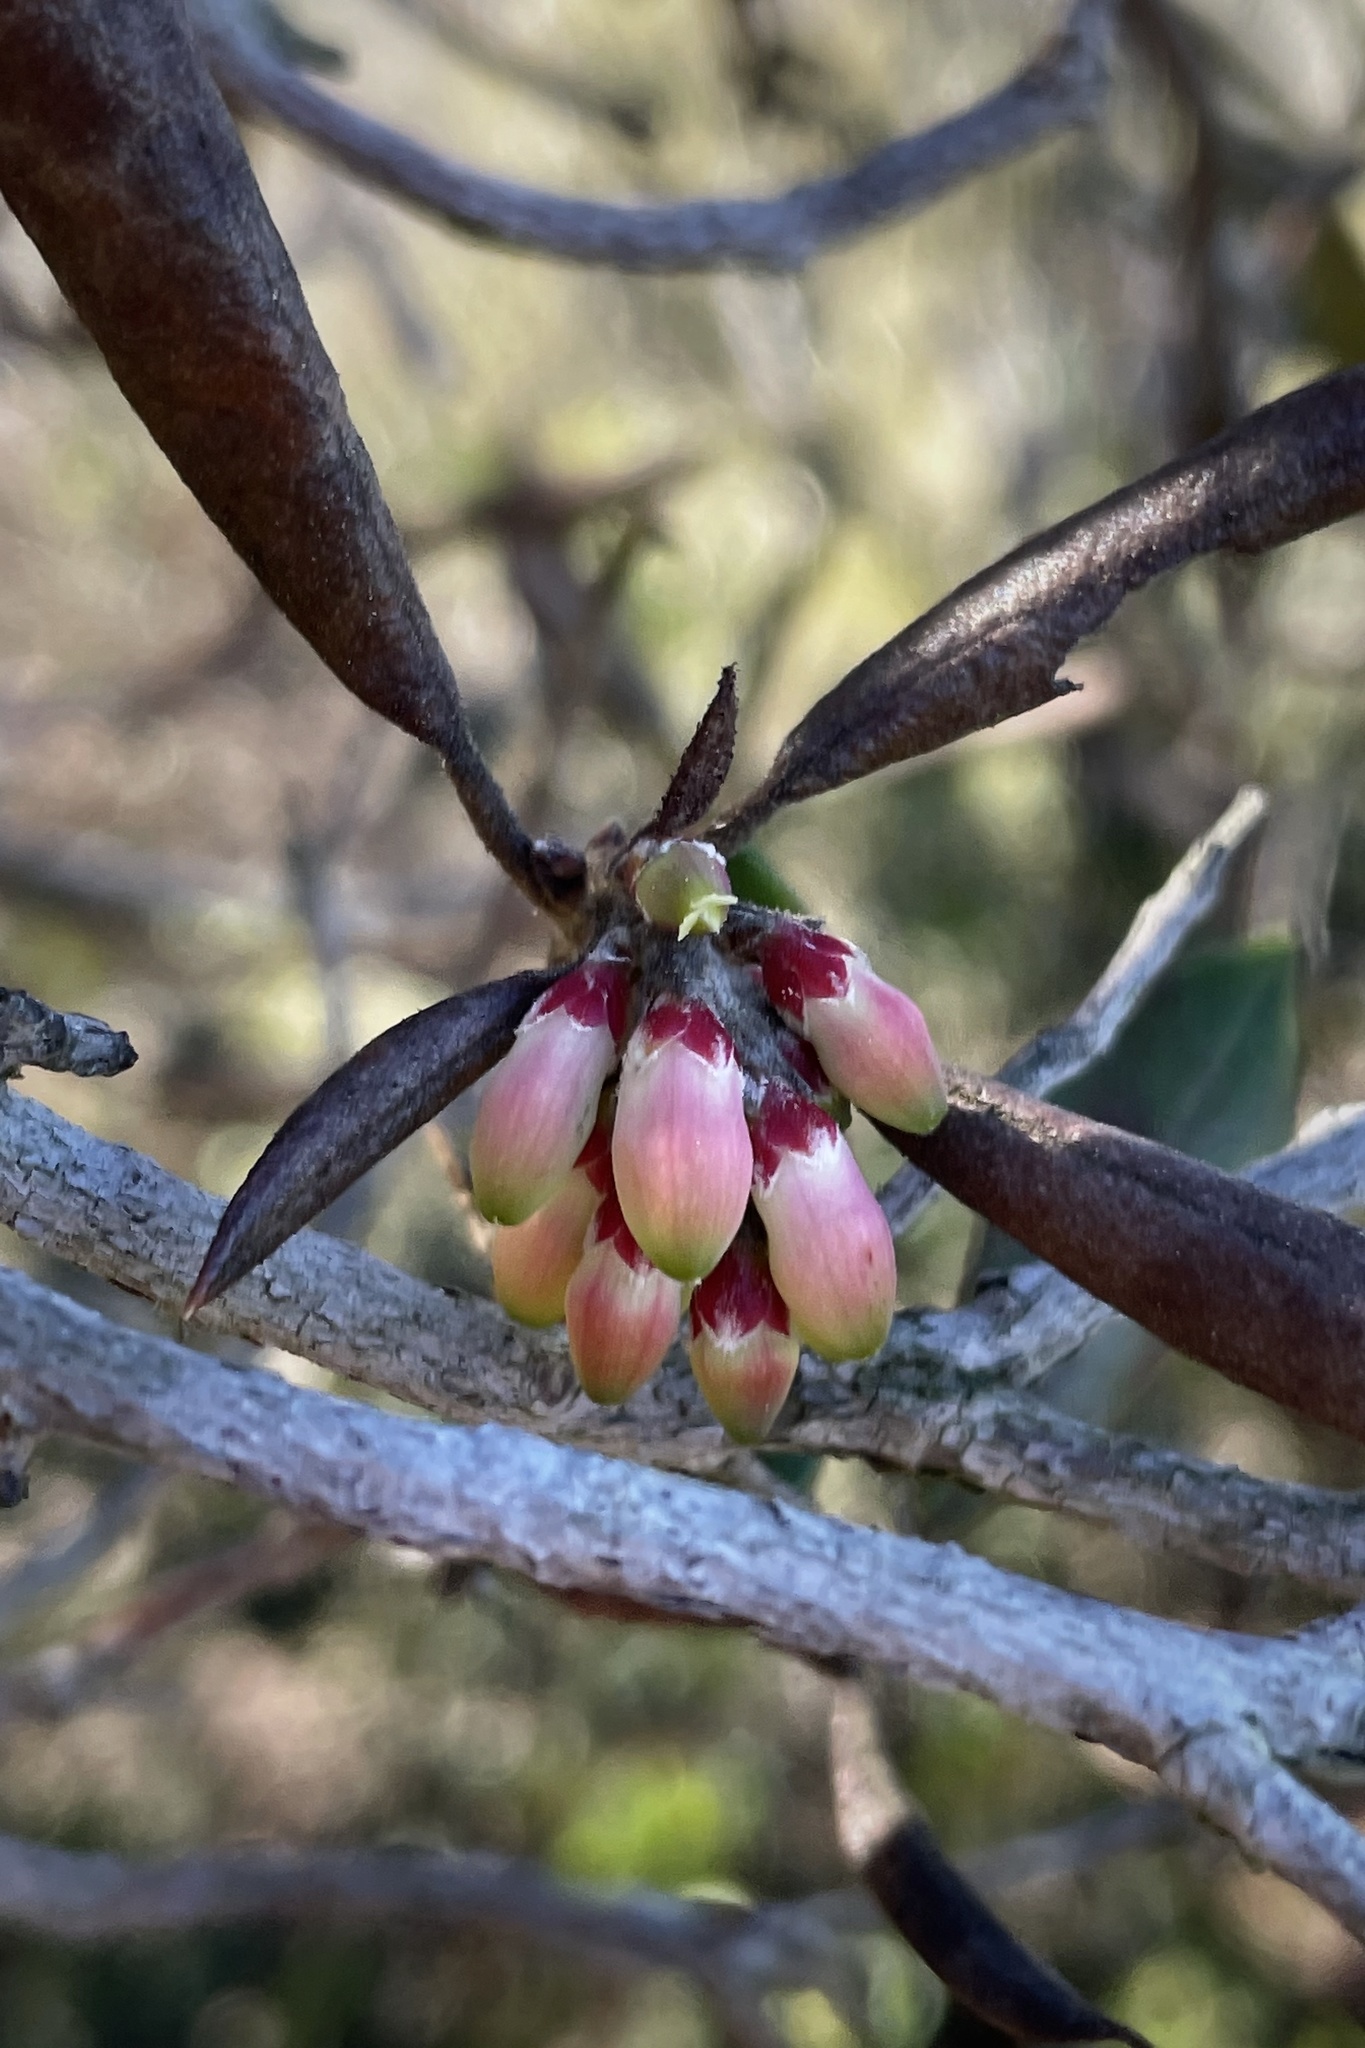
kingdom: Plantae
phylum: Tracheophyta
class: Magnoliopsida
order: Ericales
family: Ericaceae
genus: Arctostaphylos
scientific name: Arctostaphylos bicolor
